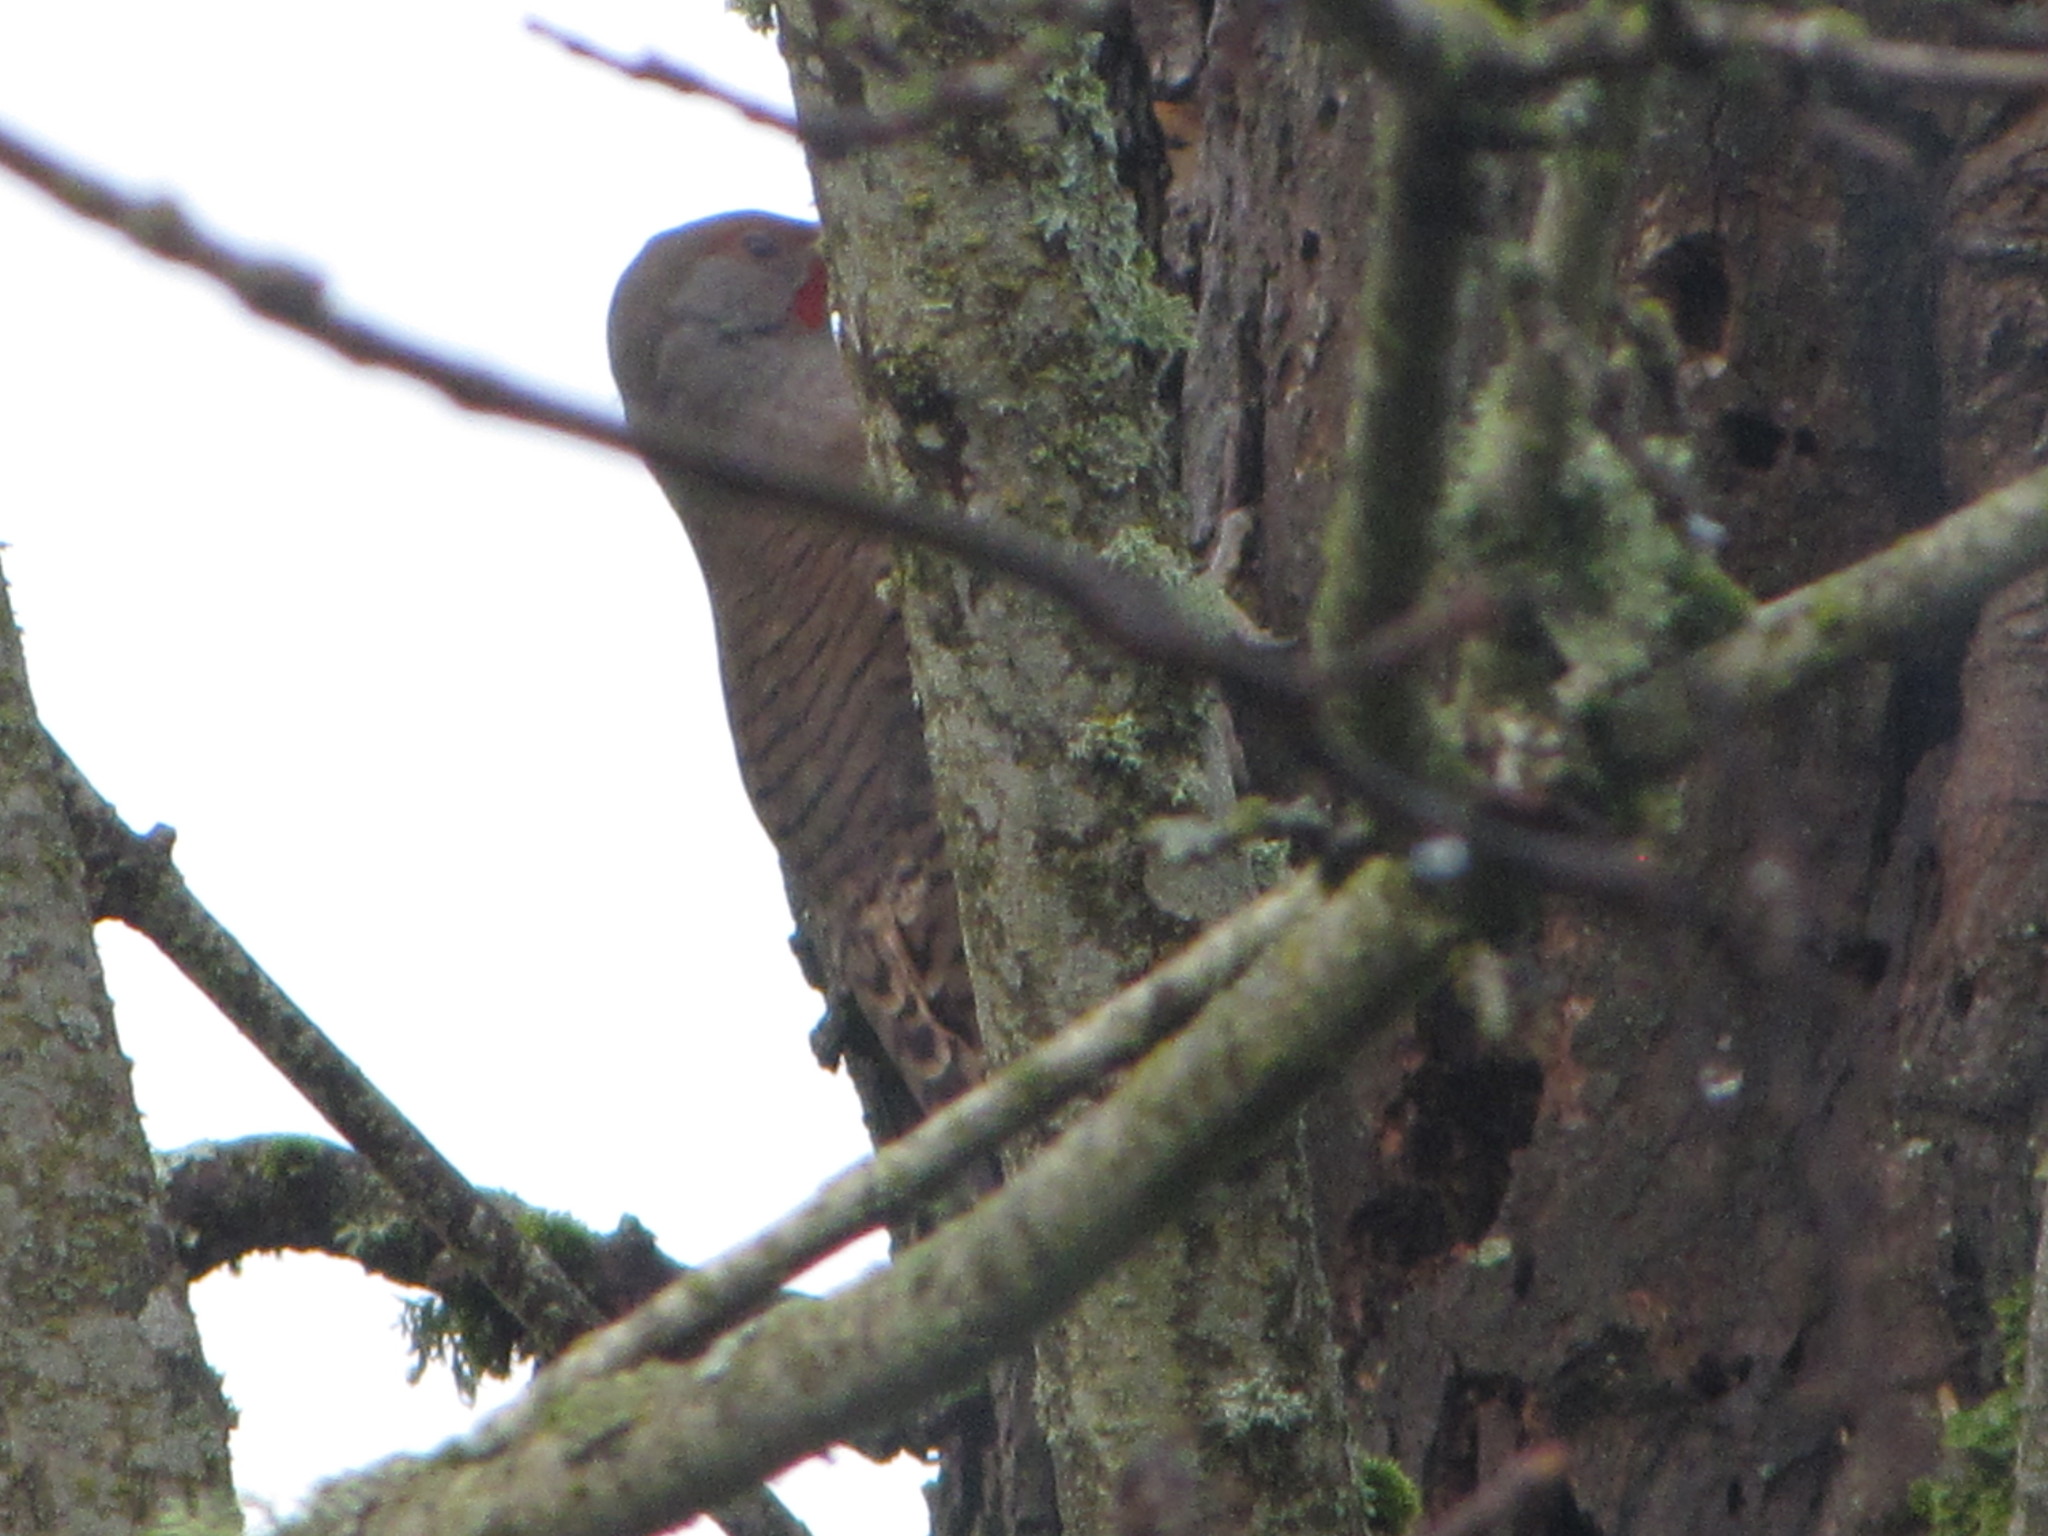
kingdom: Animalia
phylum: Chordata
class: Aves
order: Piciformes
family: Picidae
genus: Colaptes
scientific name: Colaptes auratus
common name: Northern flicker
